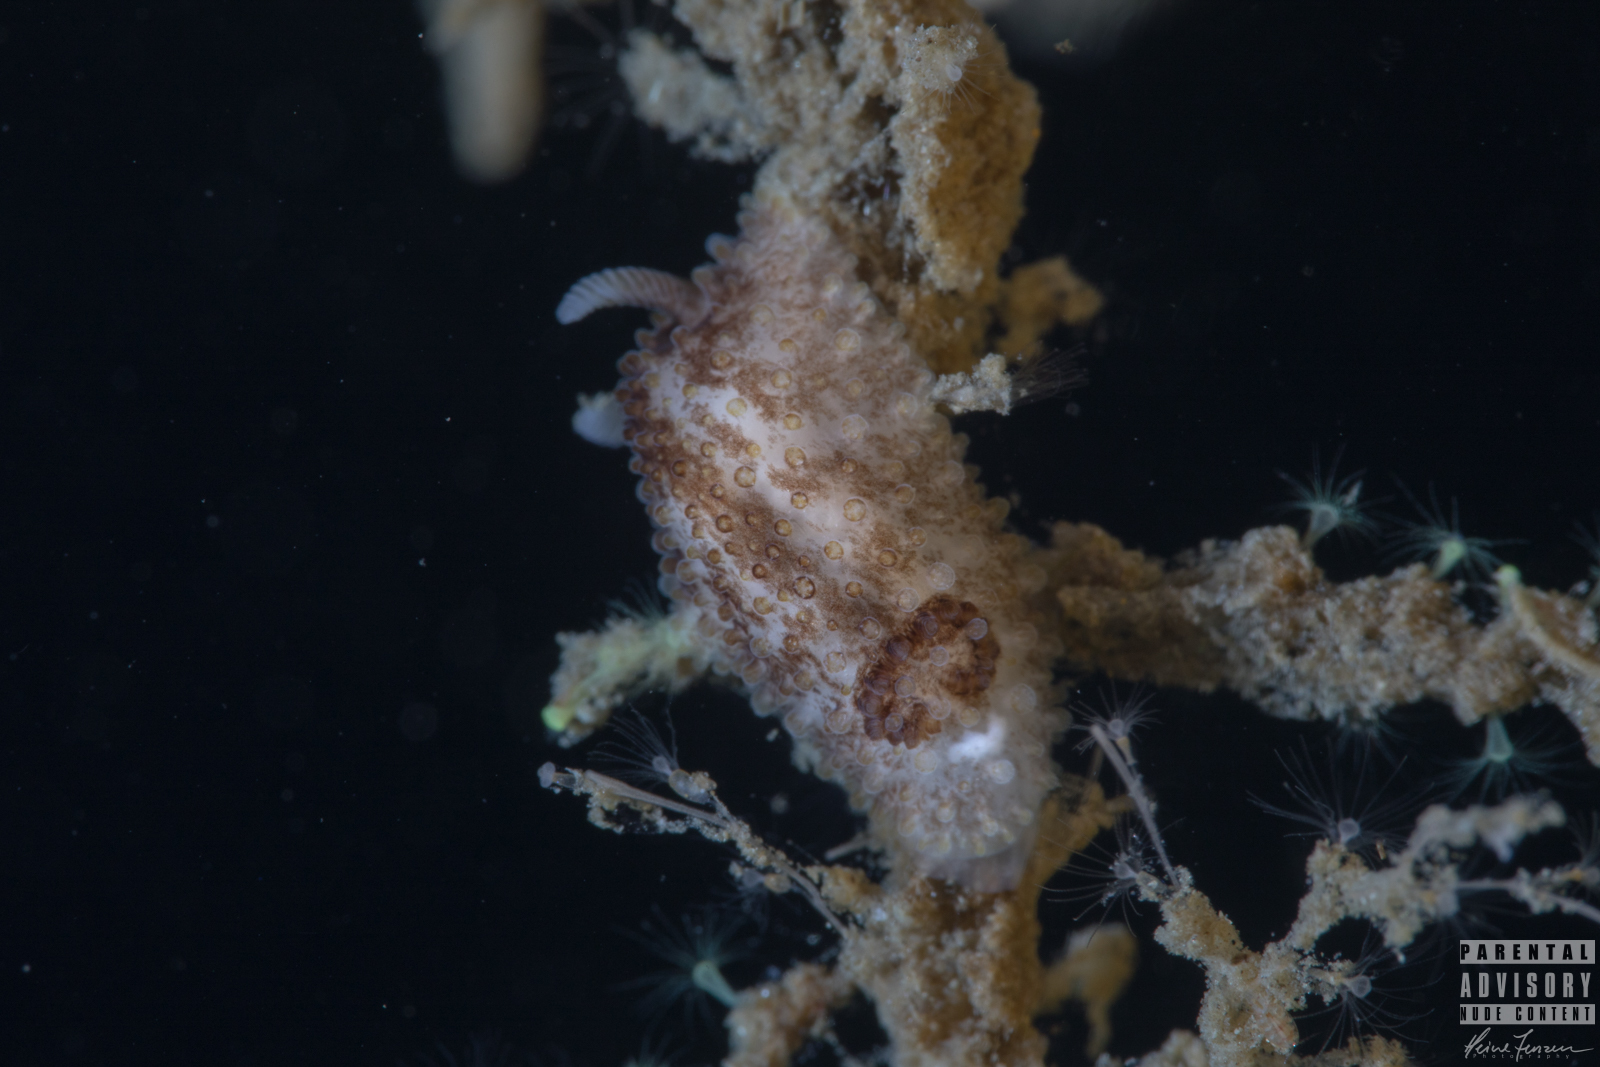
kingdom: Animalia
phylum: Mollusca
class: Gastropoda
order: Nudibranchia
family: Onchidorididae
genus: Onchidoris
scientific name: Onchidoris bilamellata
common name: Barnacle-eating onchidoris
